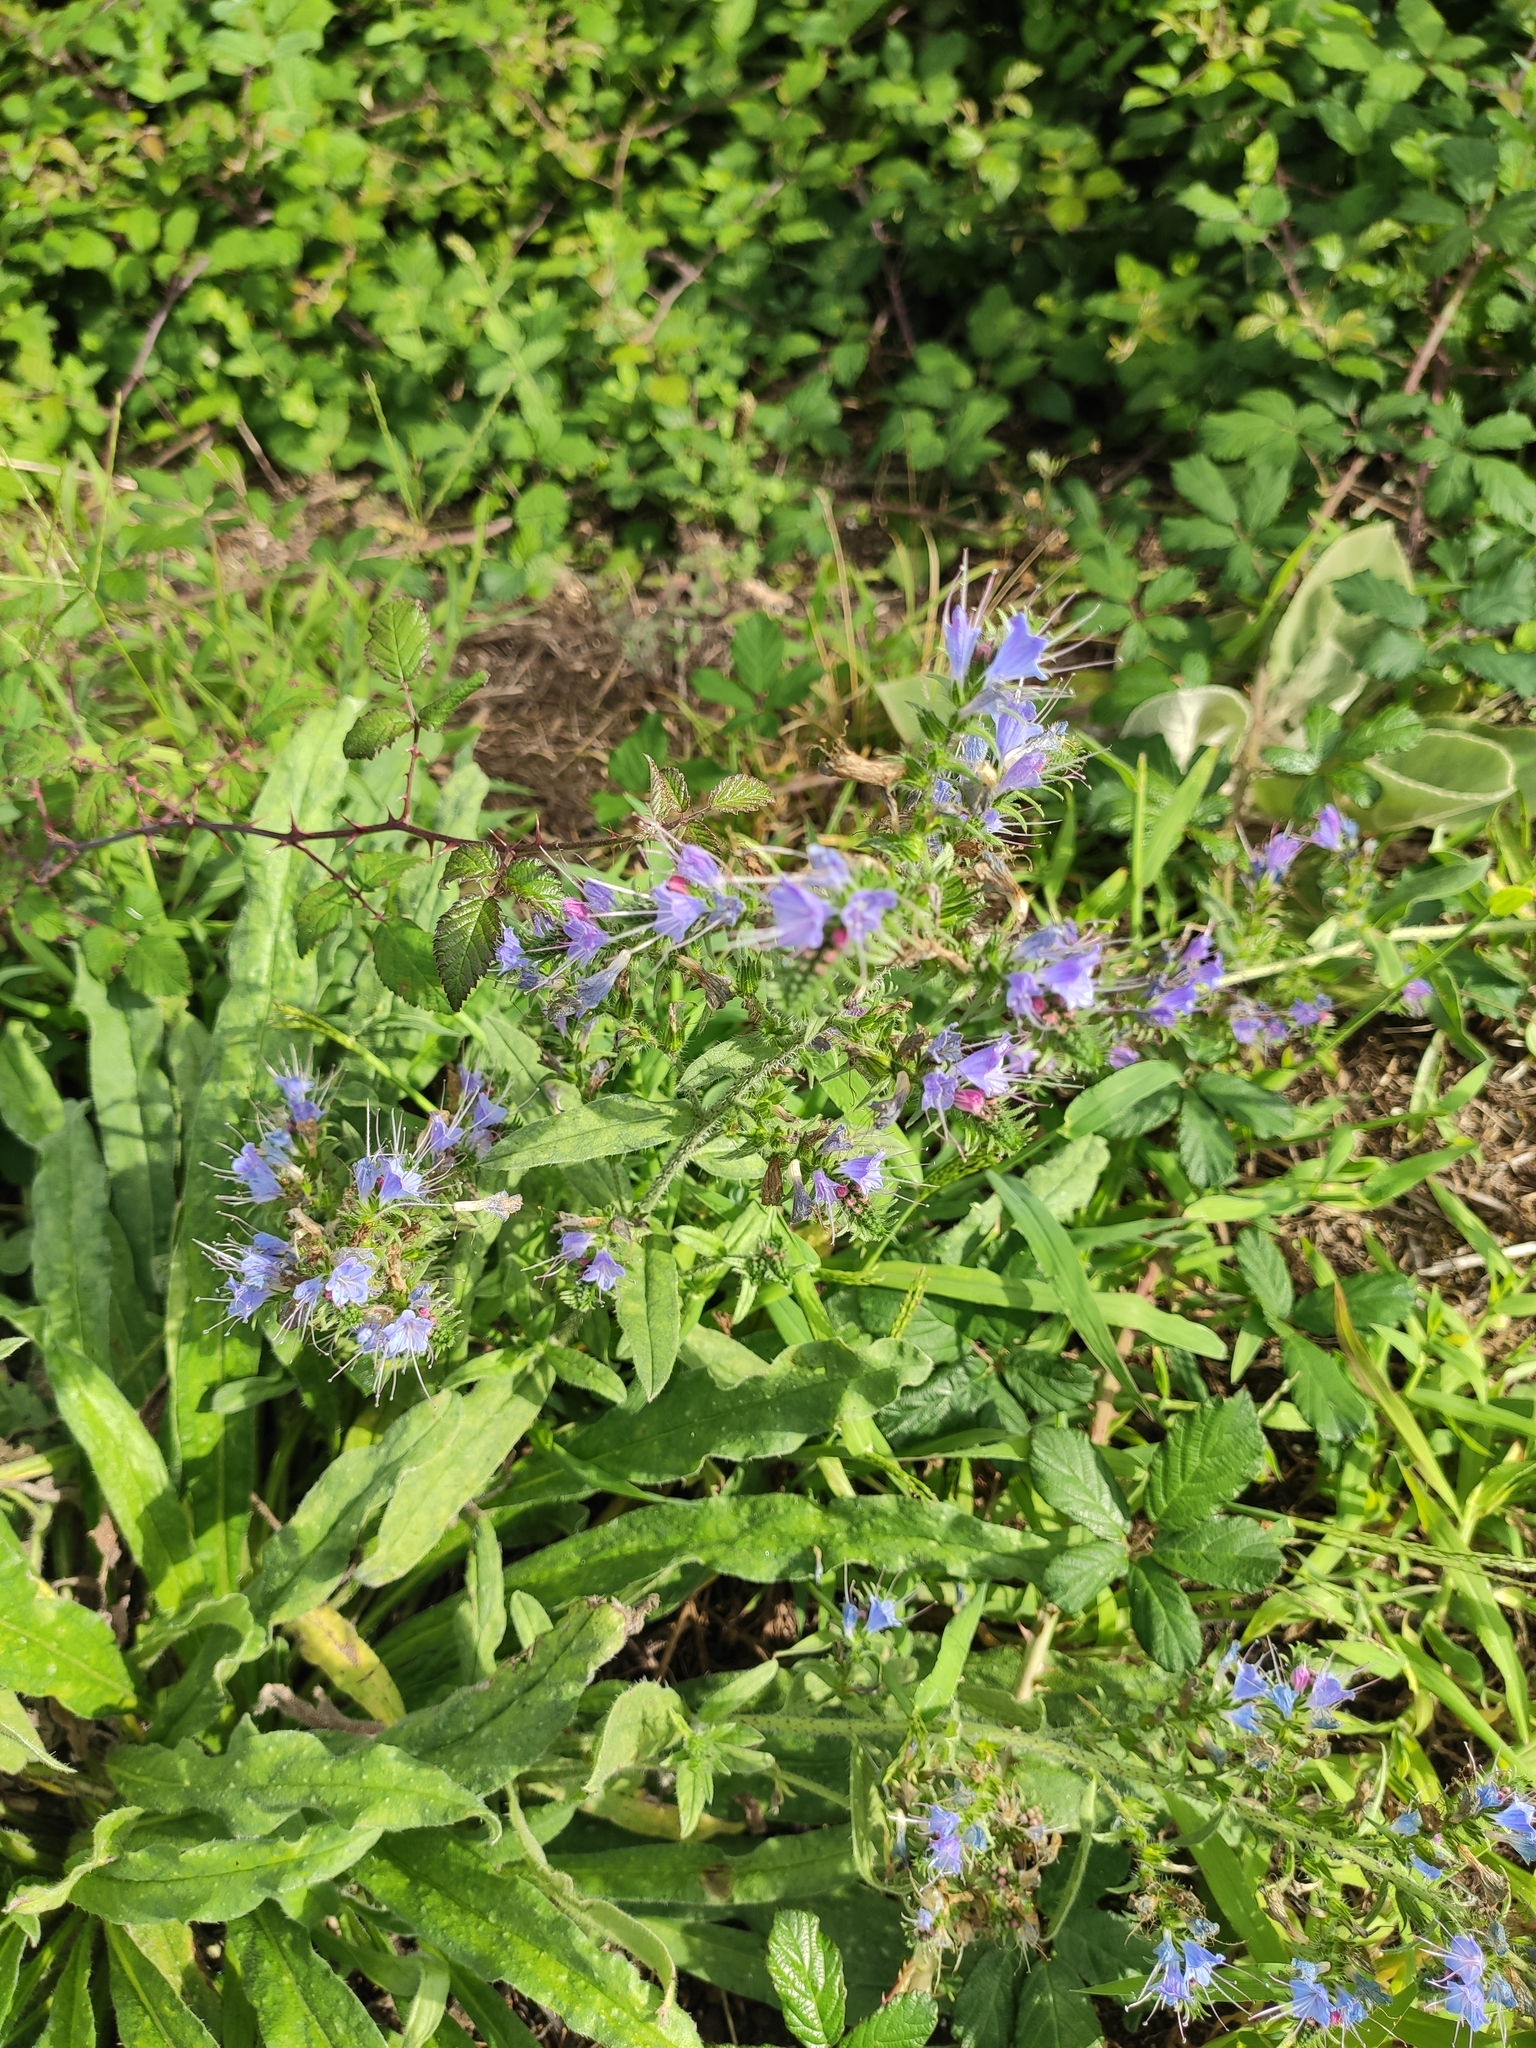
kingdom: Plantae
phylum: Tracheophyta
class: Magnoliopsida
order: Boraginales
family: Boraginaceae
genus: Echium
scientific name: Echium vulgare
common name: Common viper's bugloss
